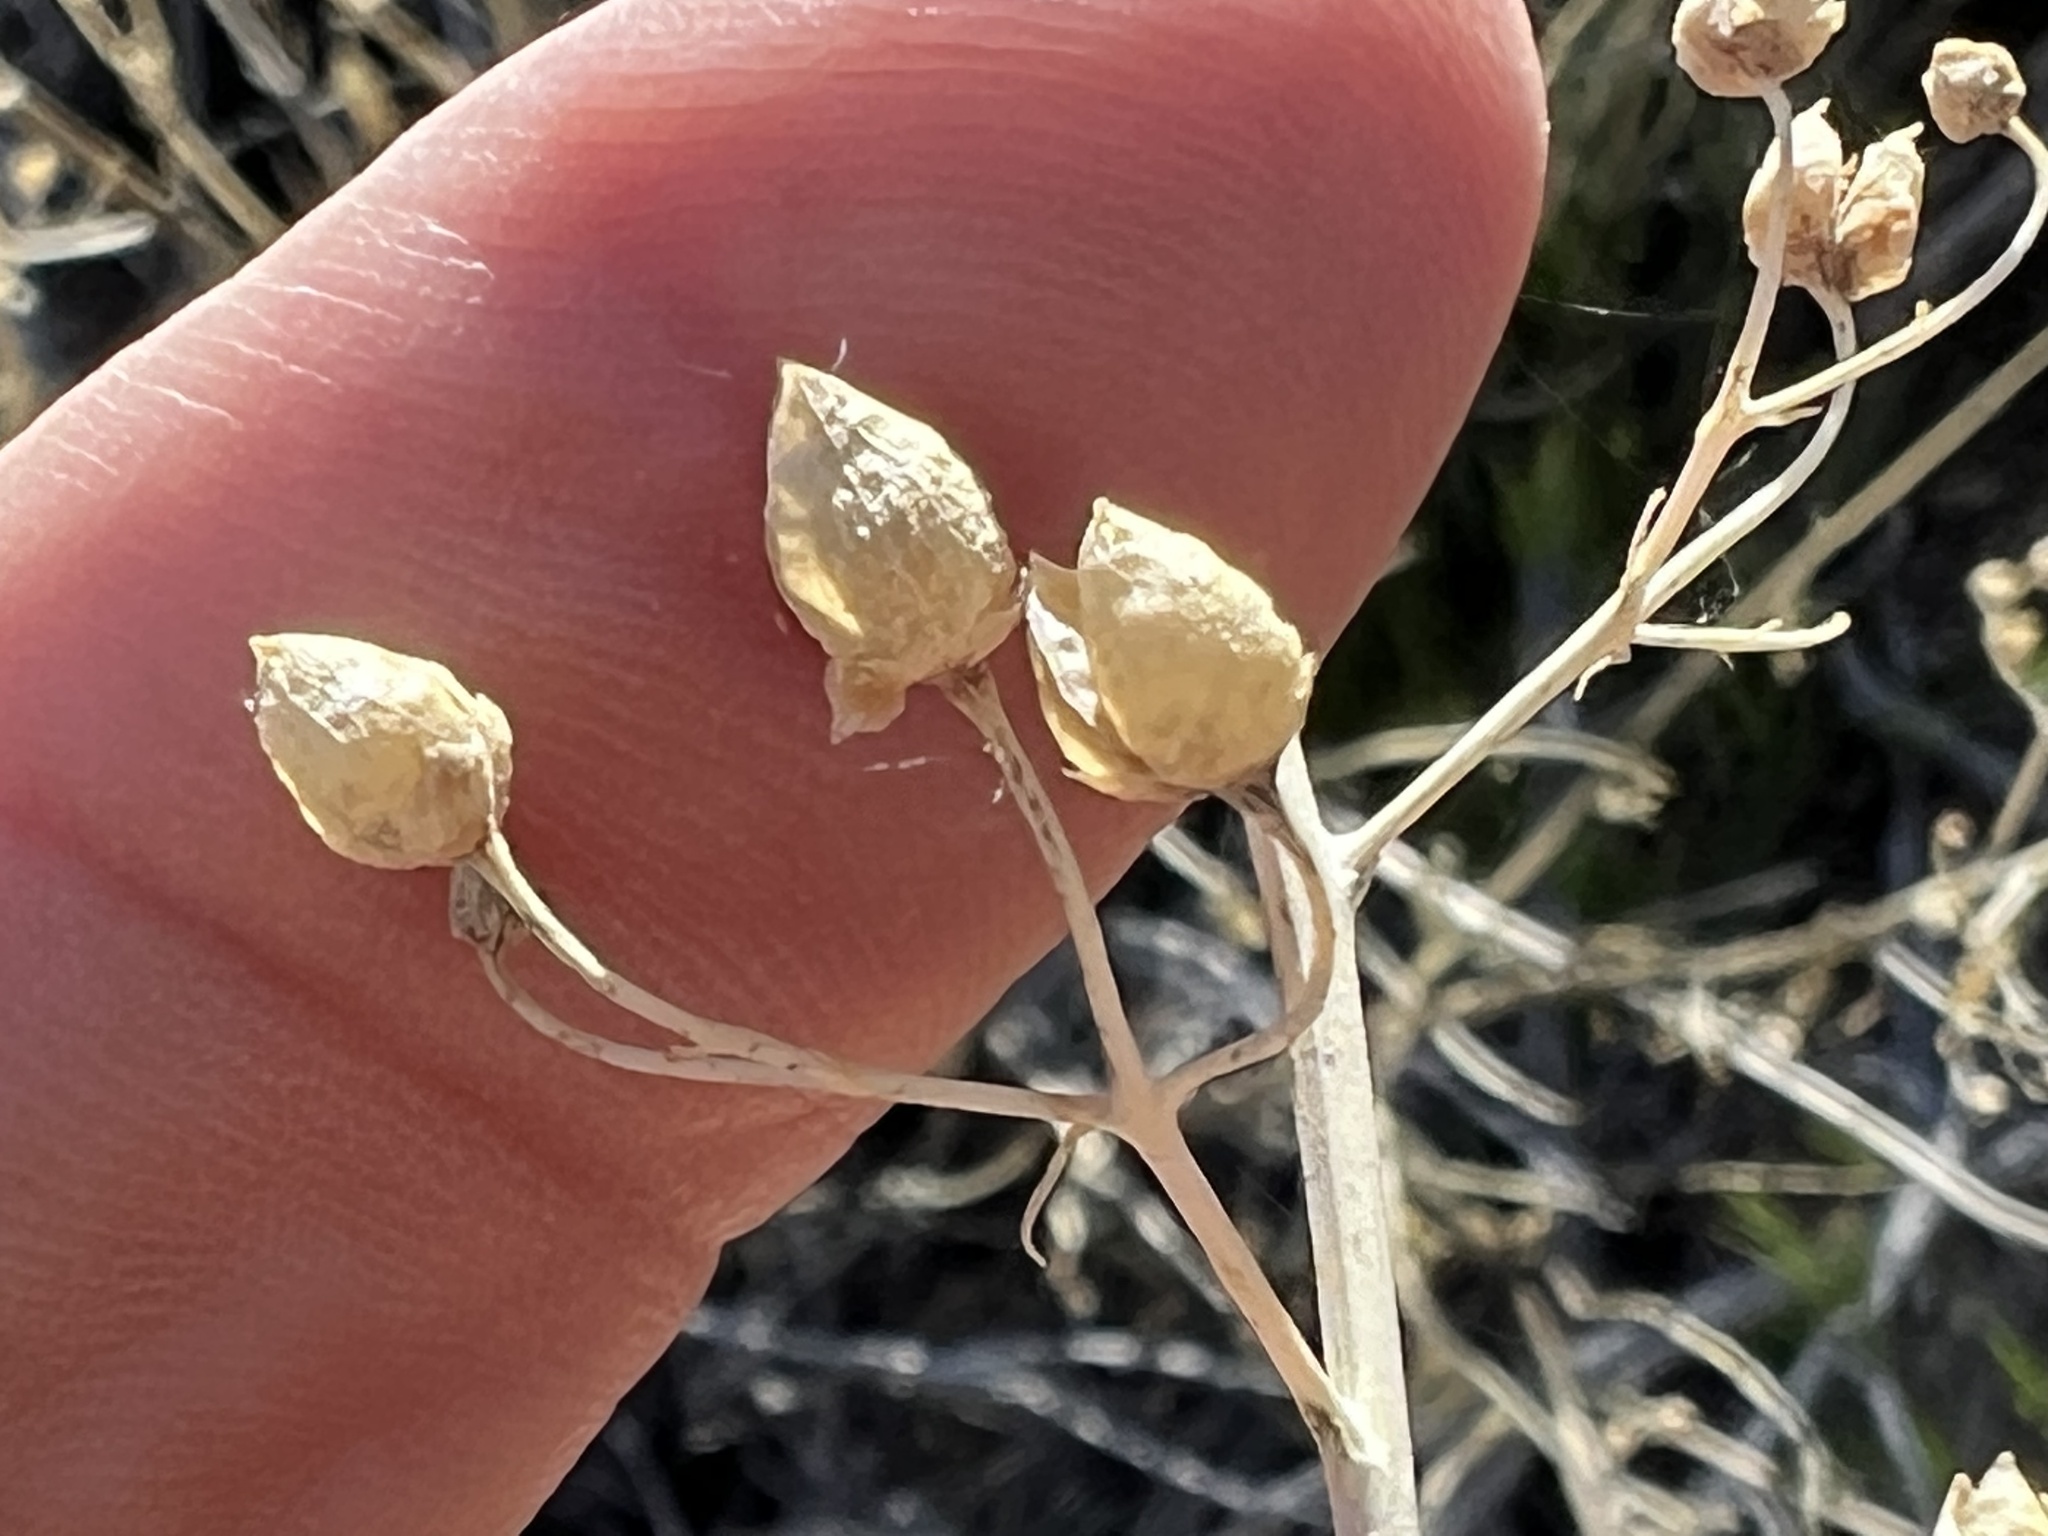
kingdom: Plantae
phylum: Tracheophyta
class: Magnoliopsida
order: Lamiales
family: Scrophulariaceae
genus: Scrophularia
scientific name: Scrophularia desertorum
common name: Desert figwort
